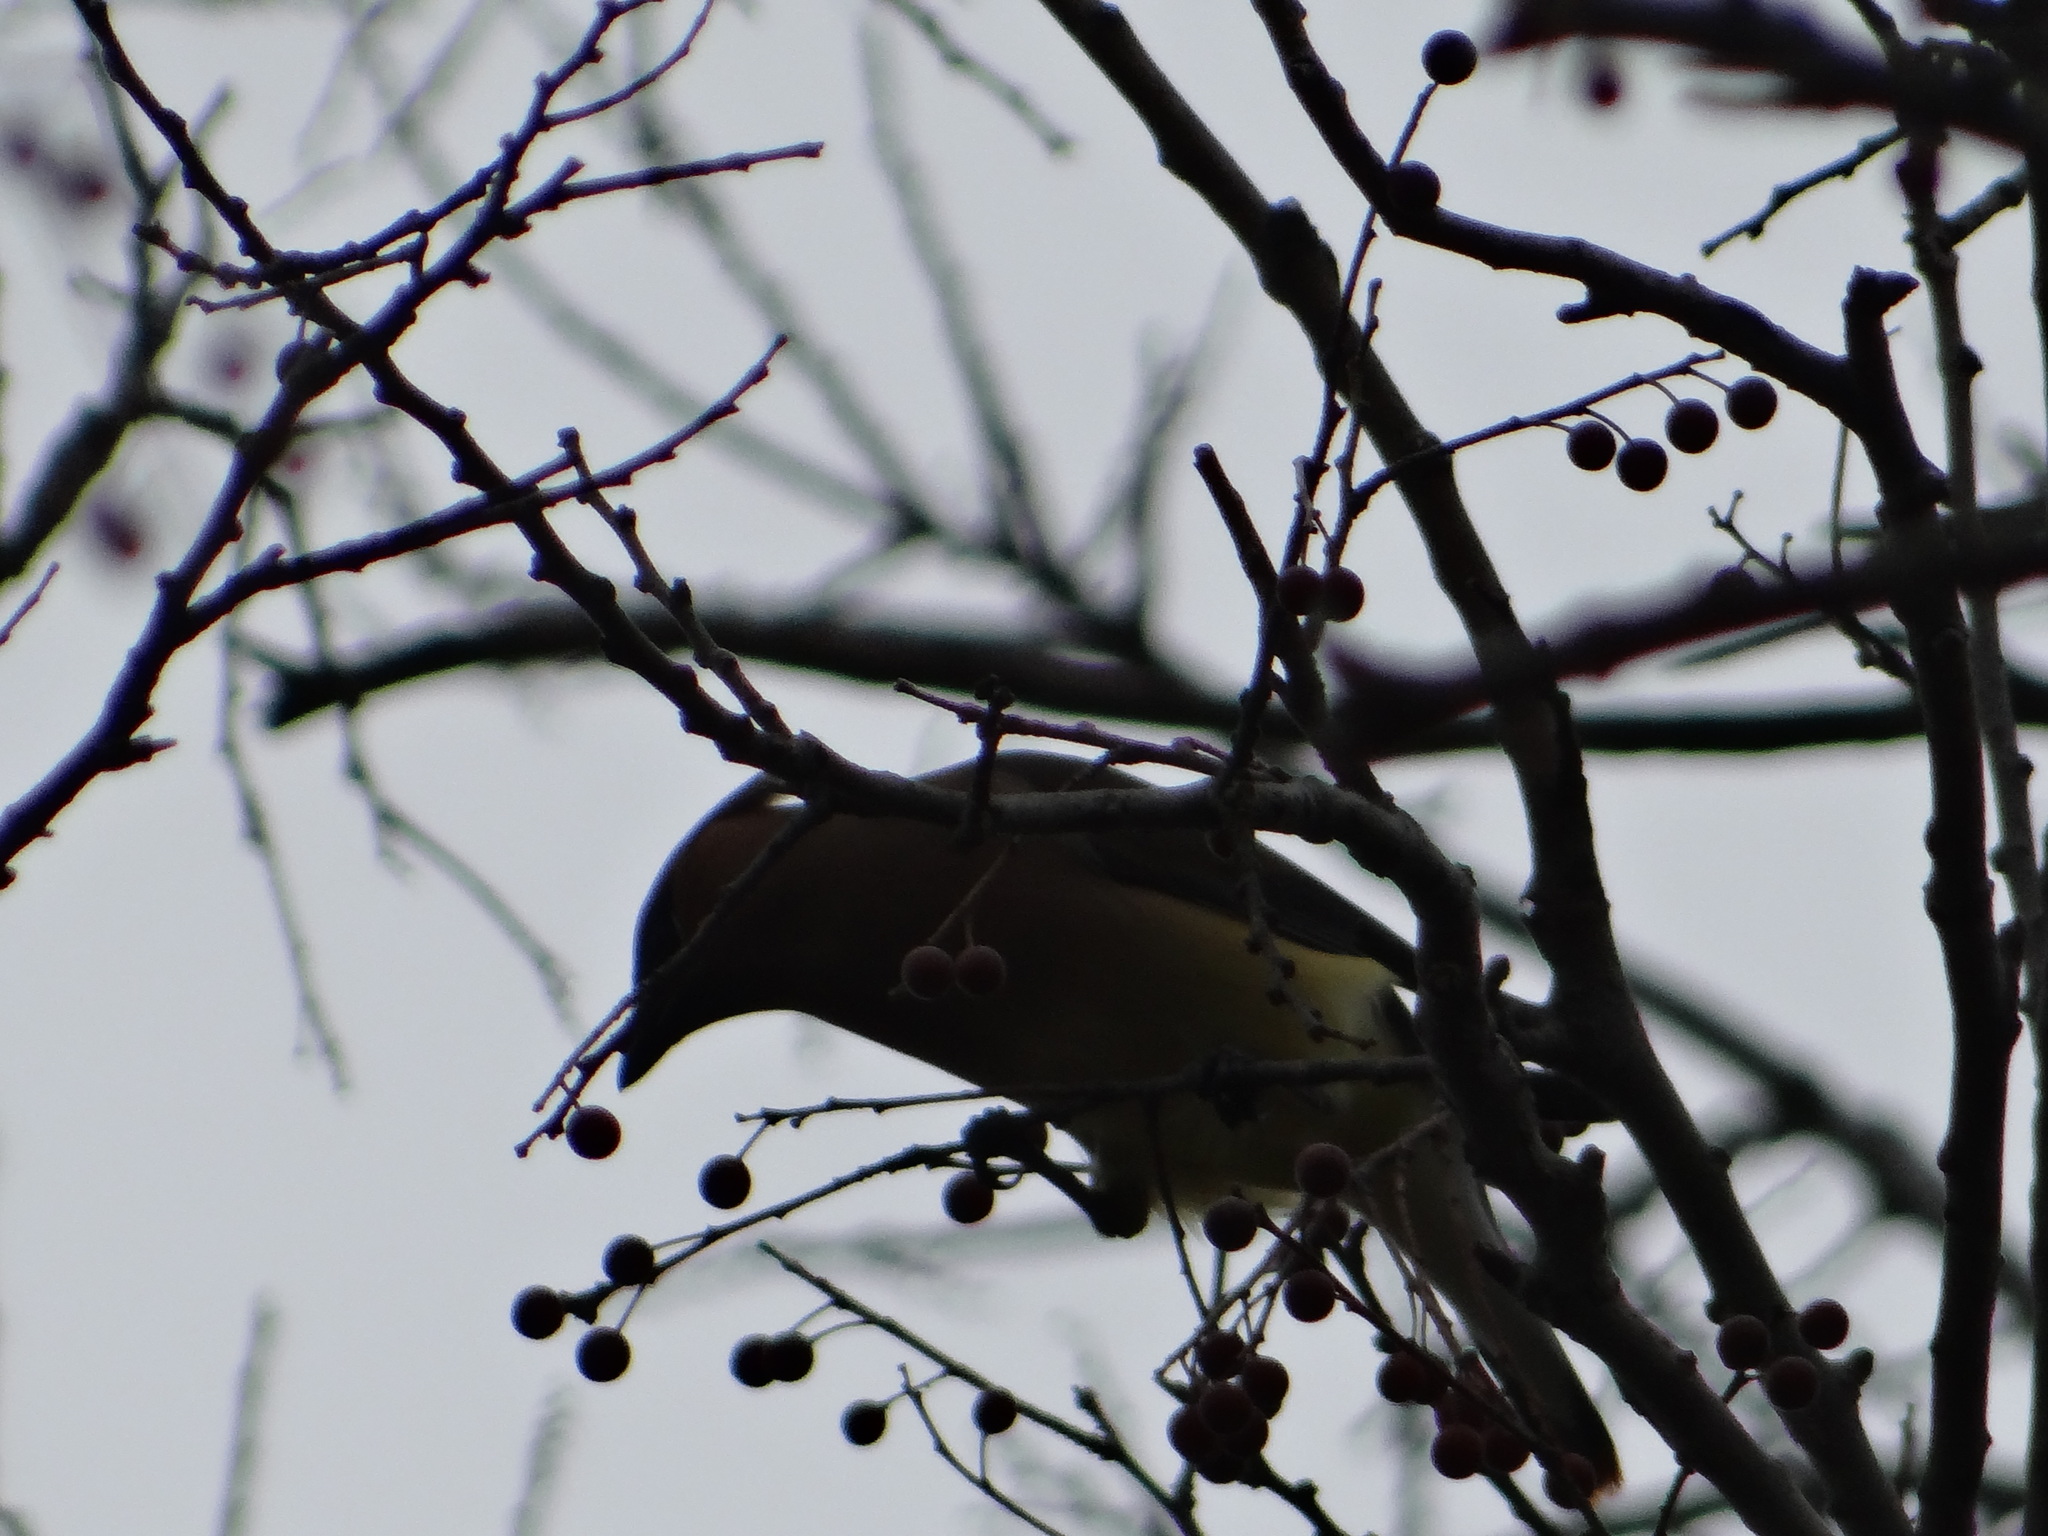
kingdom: Animalia
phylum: Chordata
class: Aves
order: Passeriformes
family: Bombycillidae
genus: Bombycilla
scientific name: Bombycilla cedrorum
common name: Cedar waxwing
